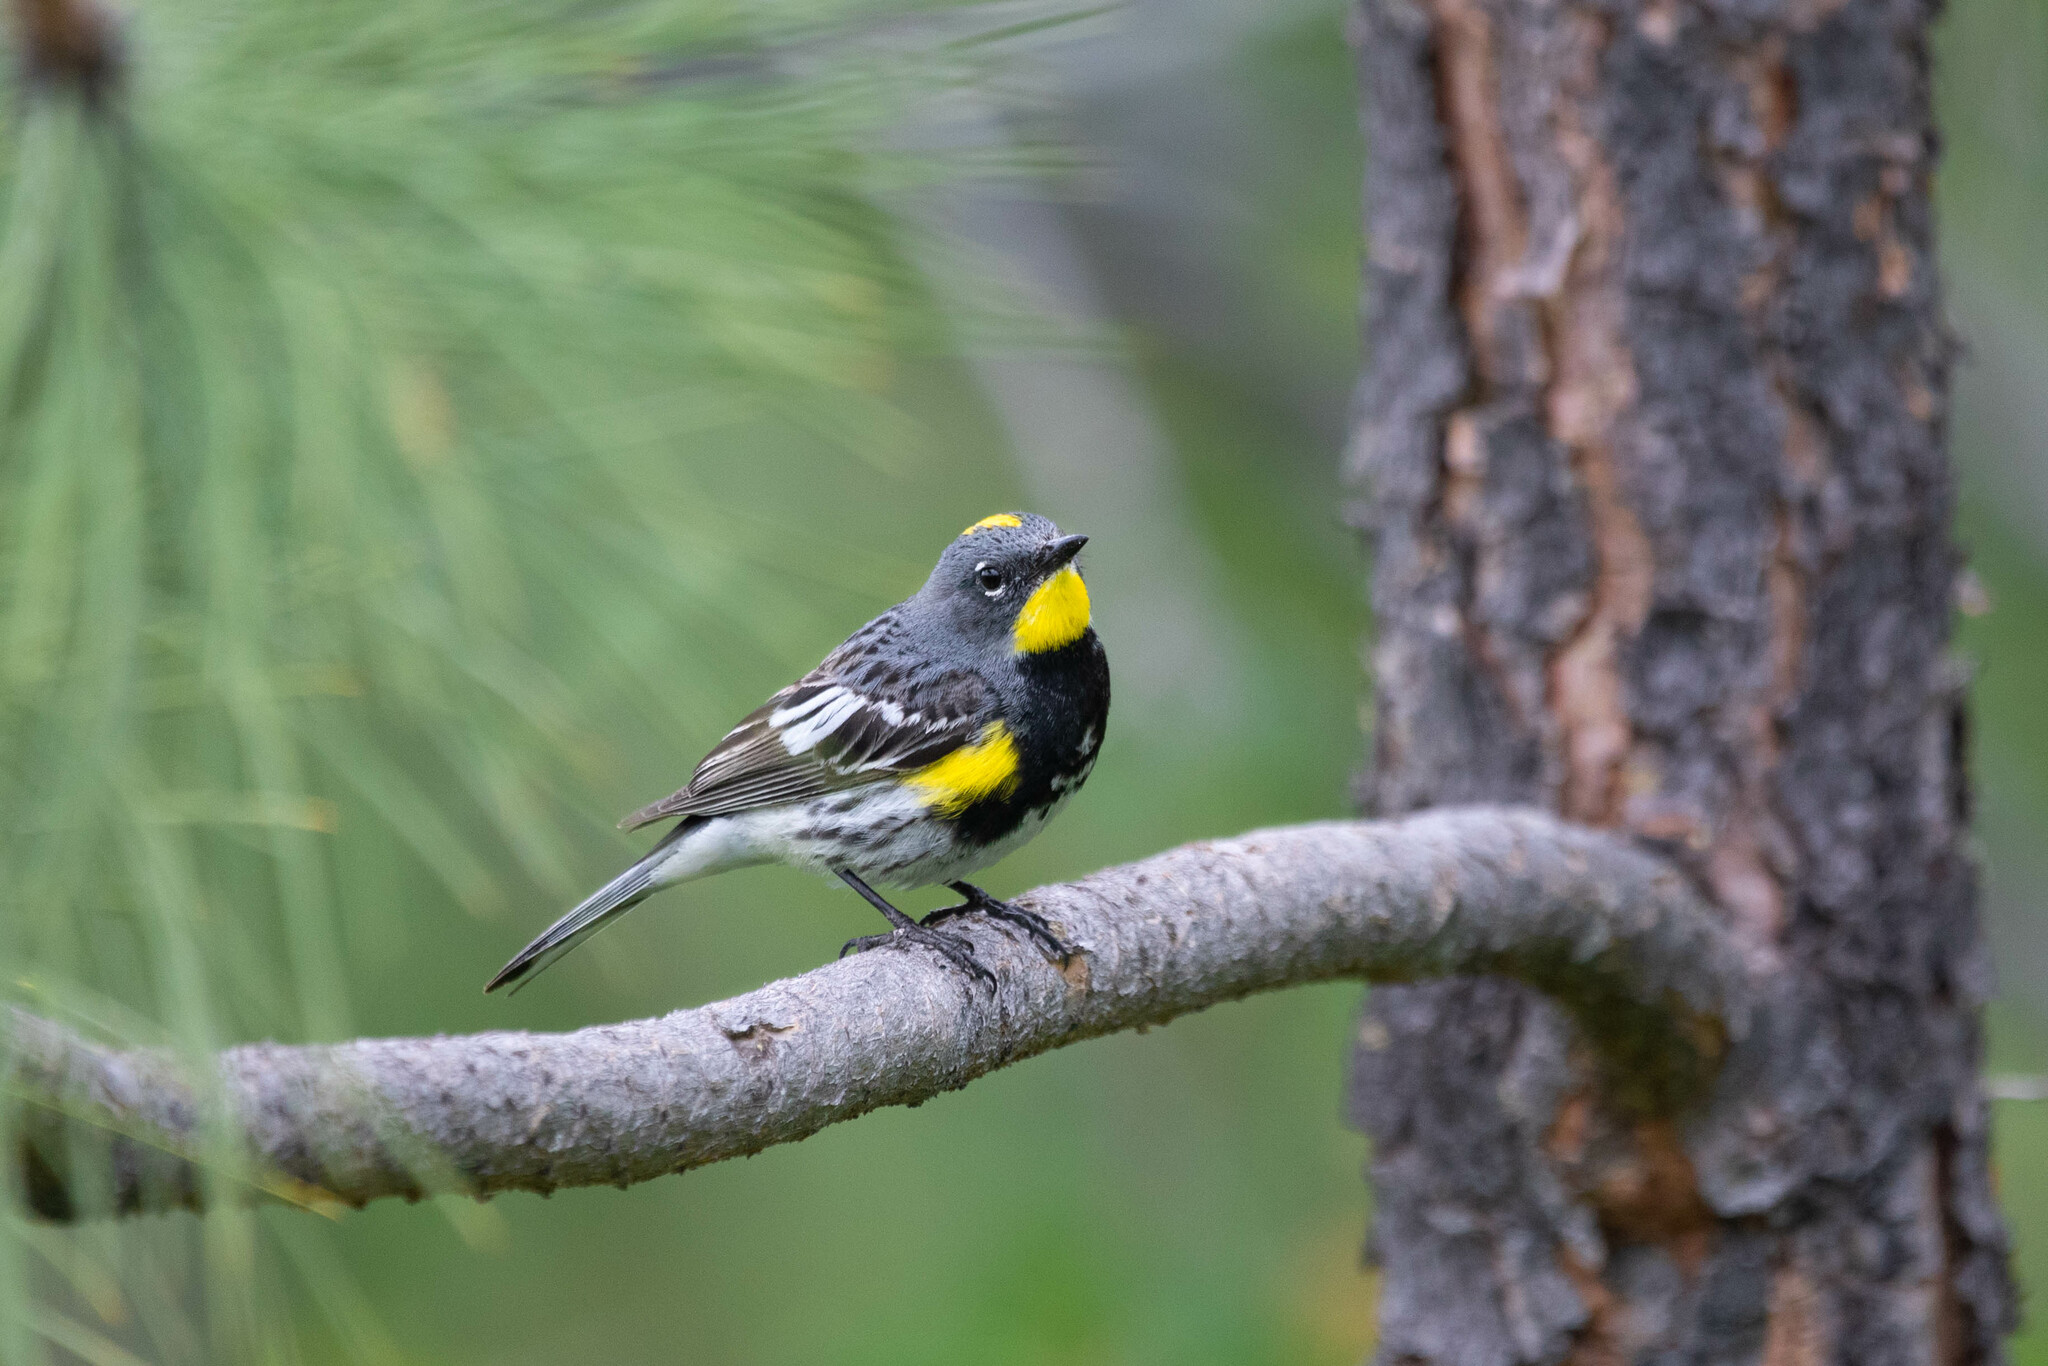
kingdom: Animalia
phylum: Chordata
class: Aves
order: Passeriformes
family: Parulidae
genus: Setophaga
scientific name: Setophaga auduboni
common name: Audubon's warbler
